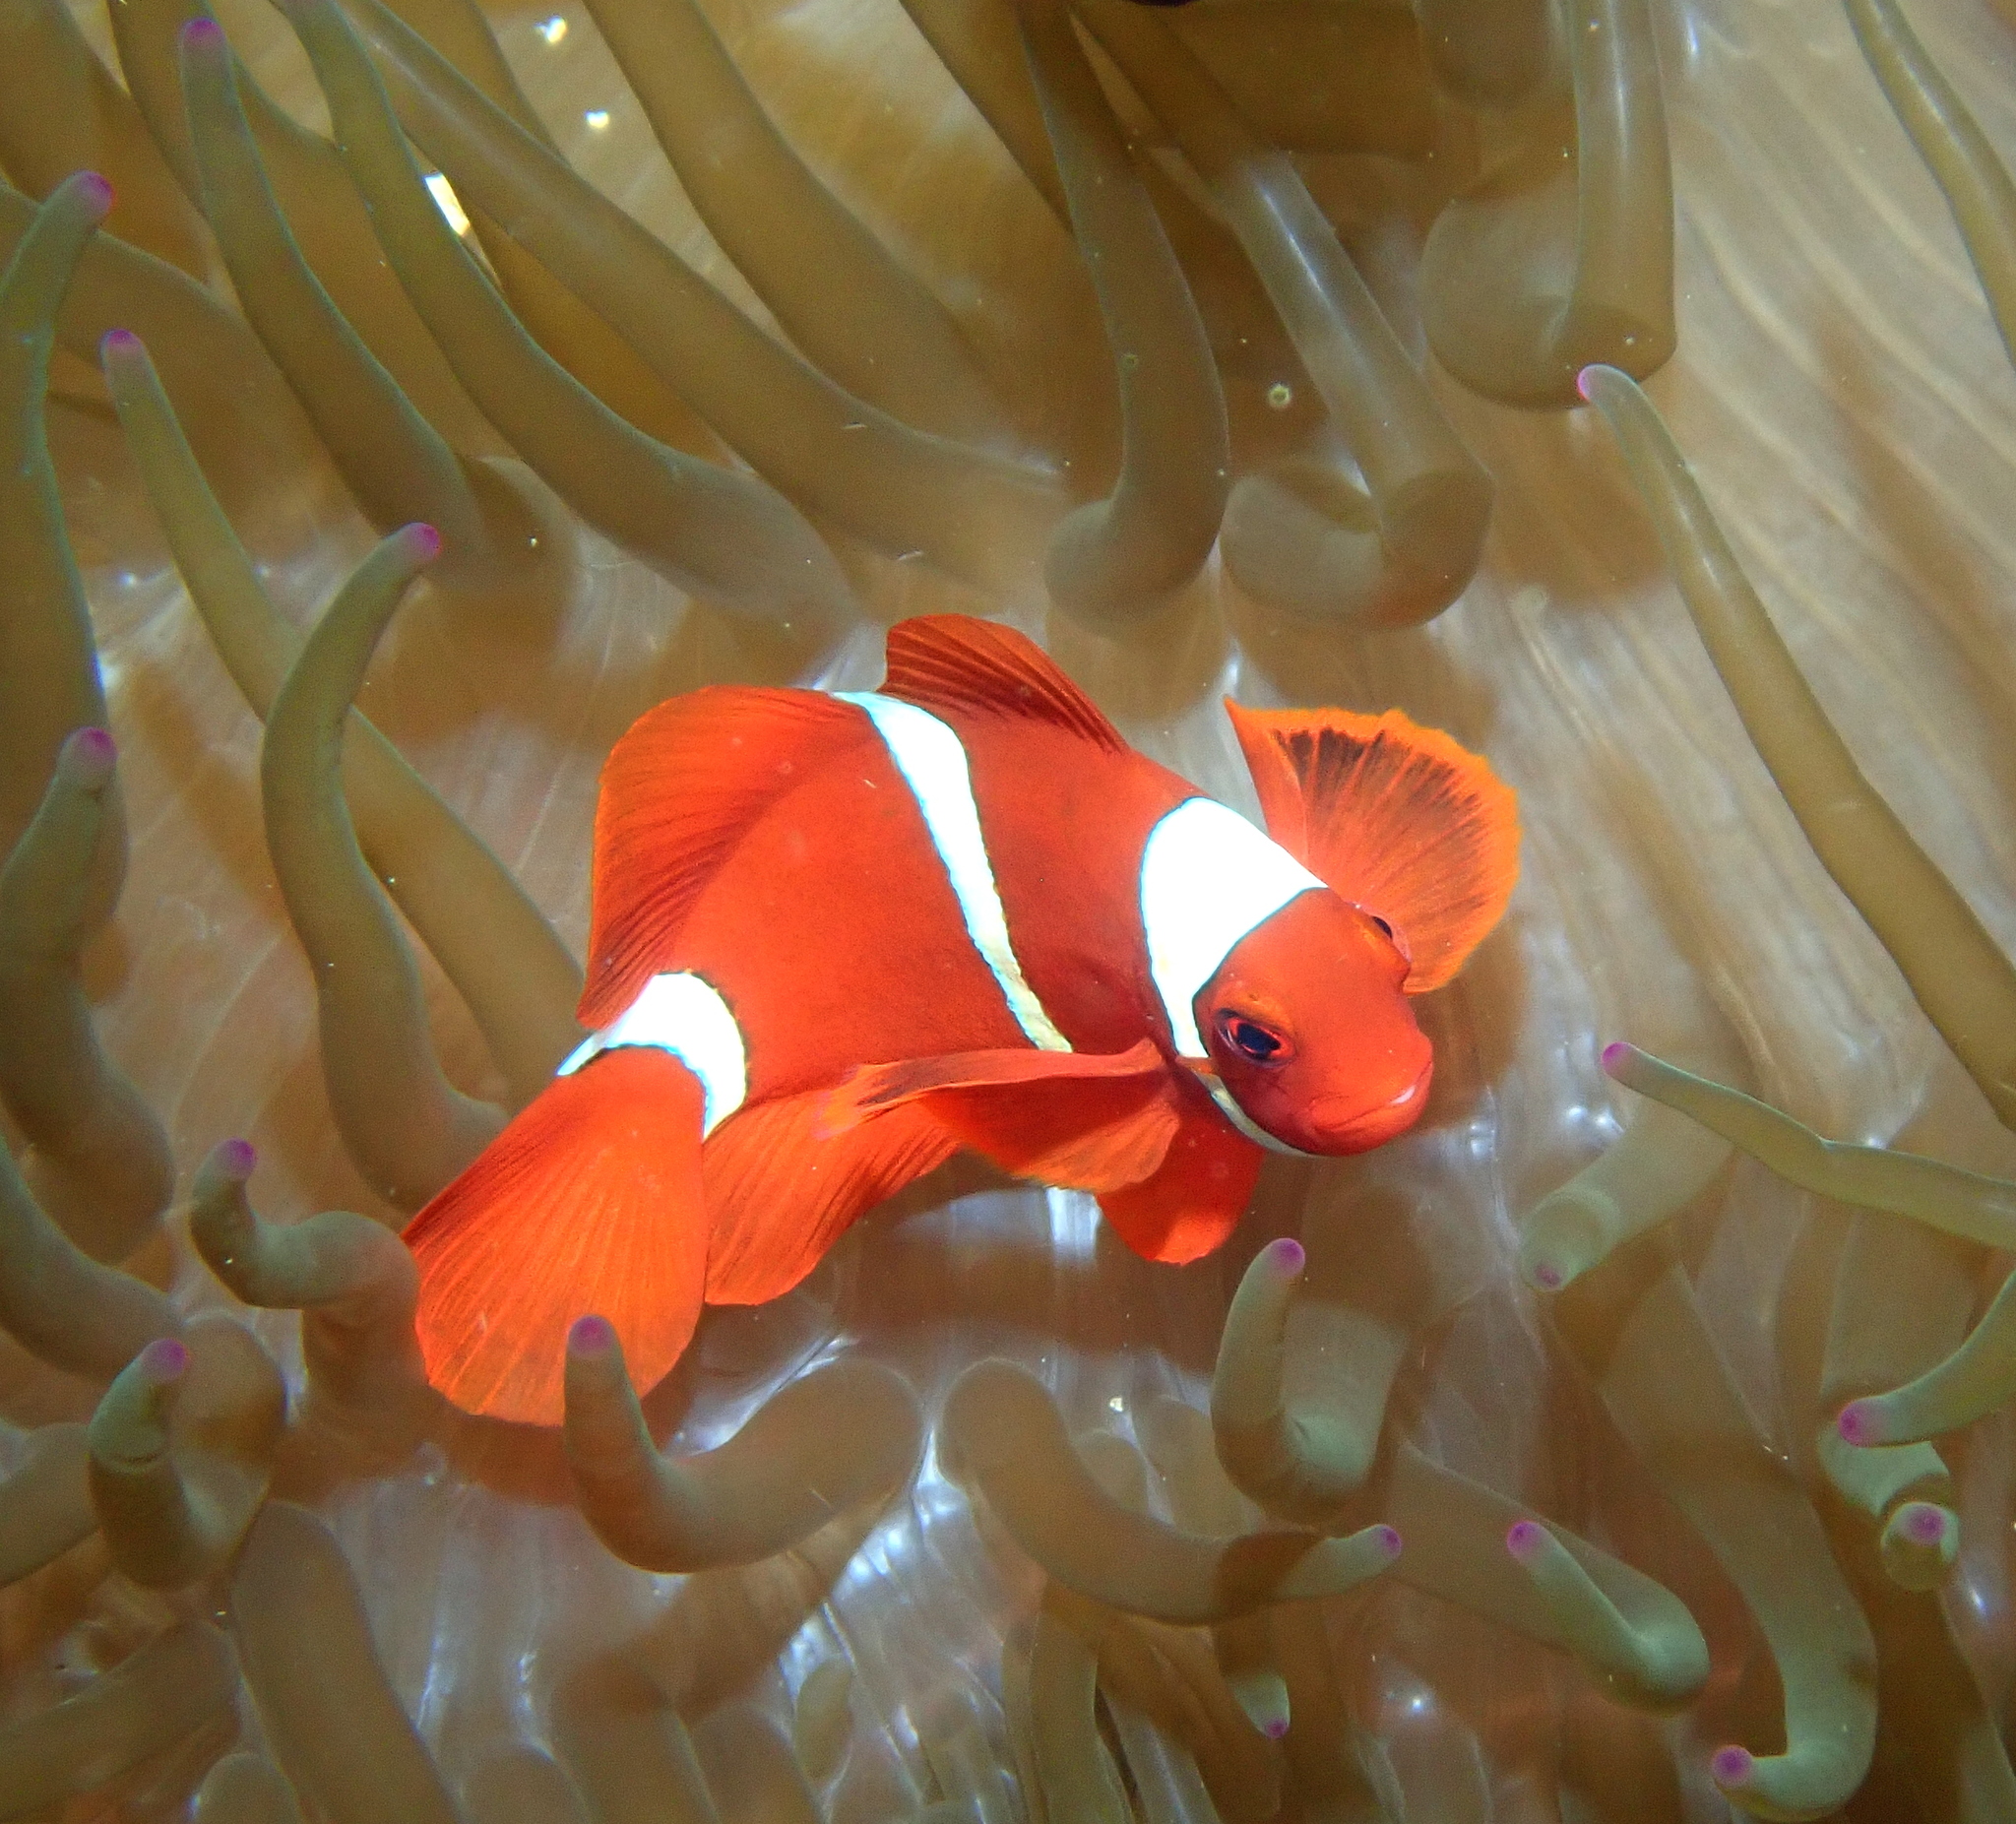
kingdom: Animalia
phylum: Chordata
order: Perciformes
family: Pomacentridae
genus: Premnas
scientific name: Premnas biaculeatus
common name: Spinecheek anemonefish
